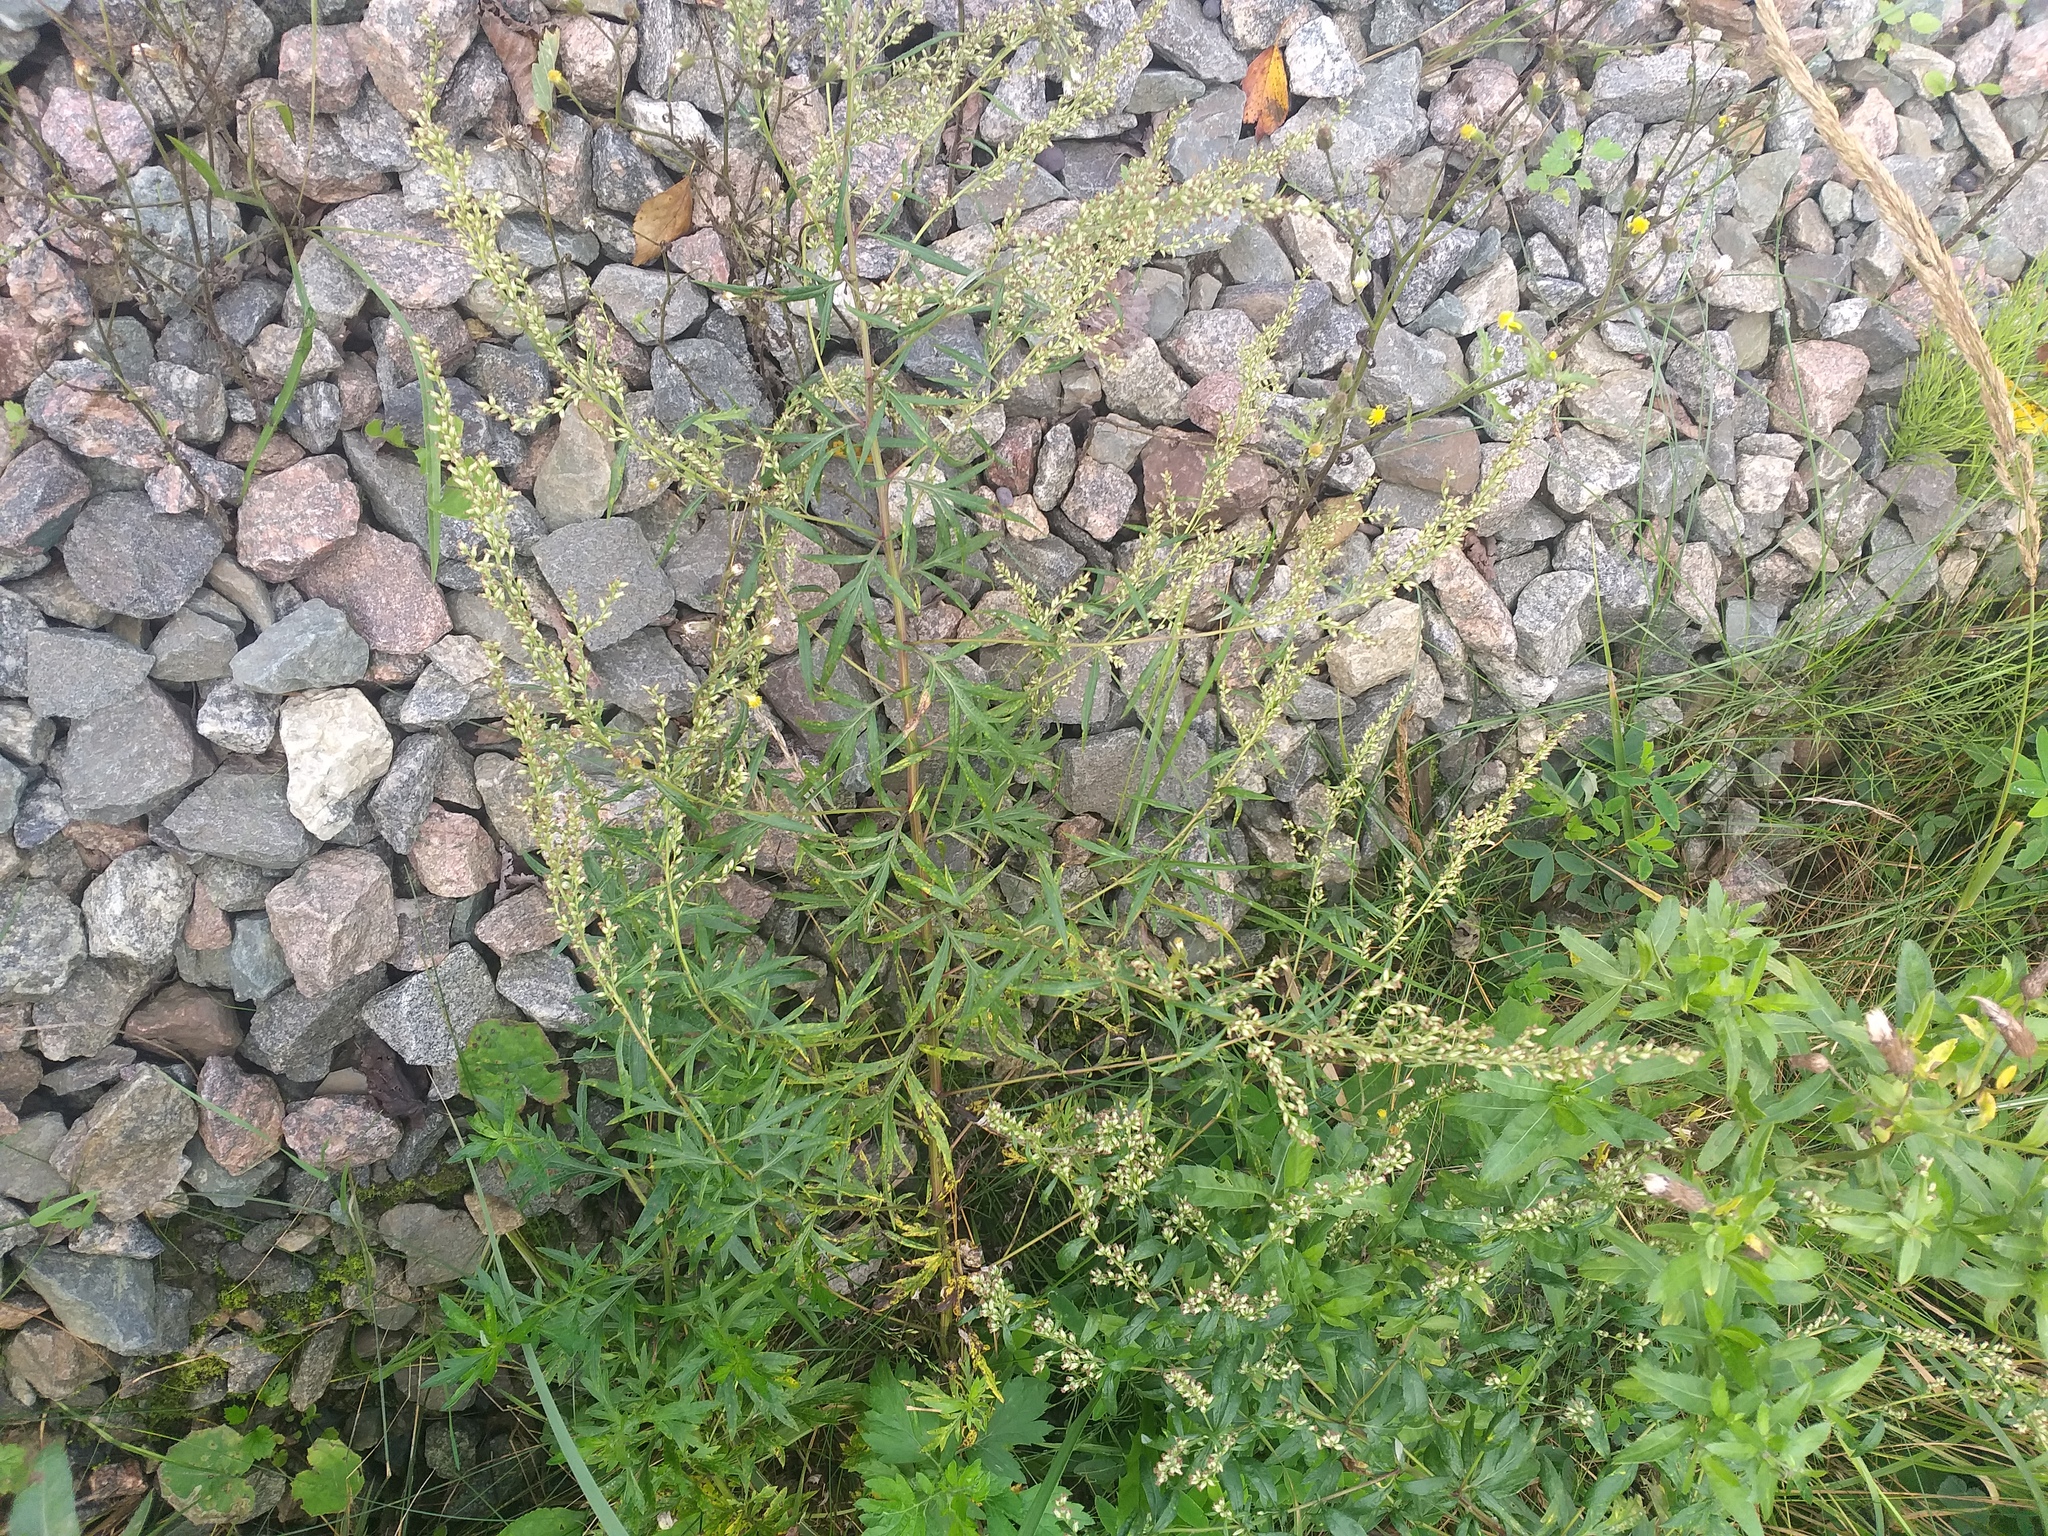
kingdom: Plantae
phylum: Tracheophyta
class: Magnoliopsida
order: Asterales
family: Asteraceae
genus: Artemisia
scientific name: Artemisia vulgaris
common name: Mugwort
